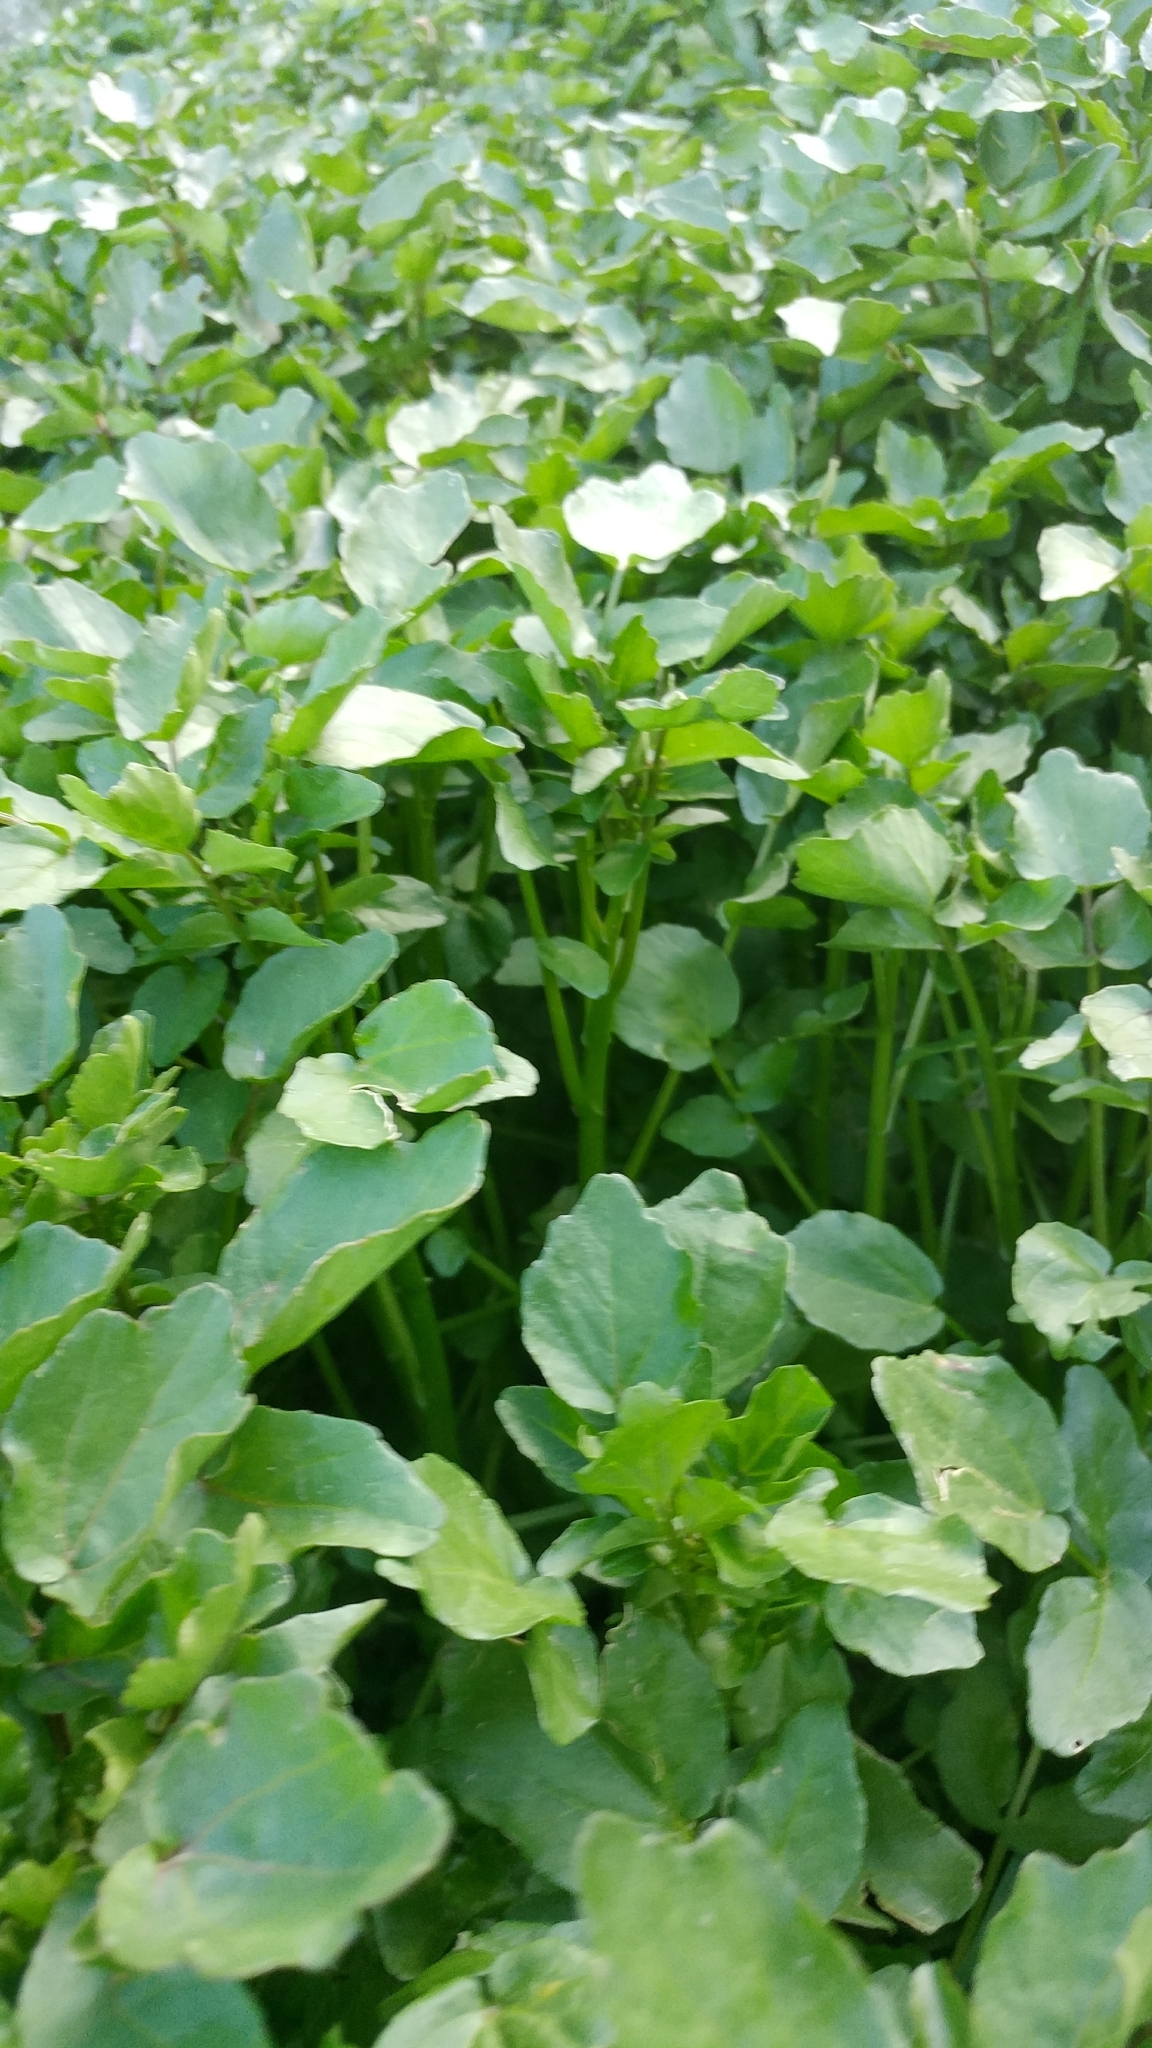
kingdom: Plantae
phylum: Tracheophyta
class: Magnoliopsida
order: Brassicales
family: Brassicaceae
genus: Nasturtium
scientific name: Nasturtium officinale
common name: Watercress
